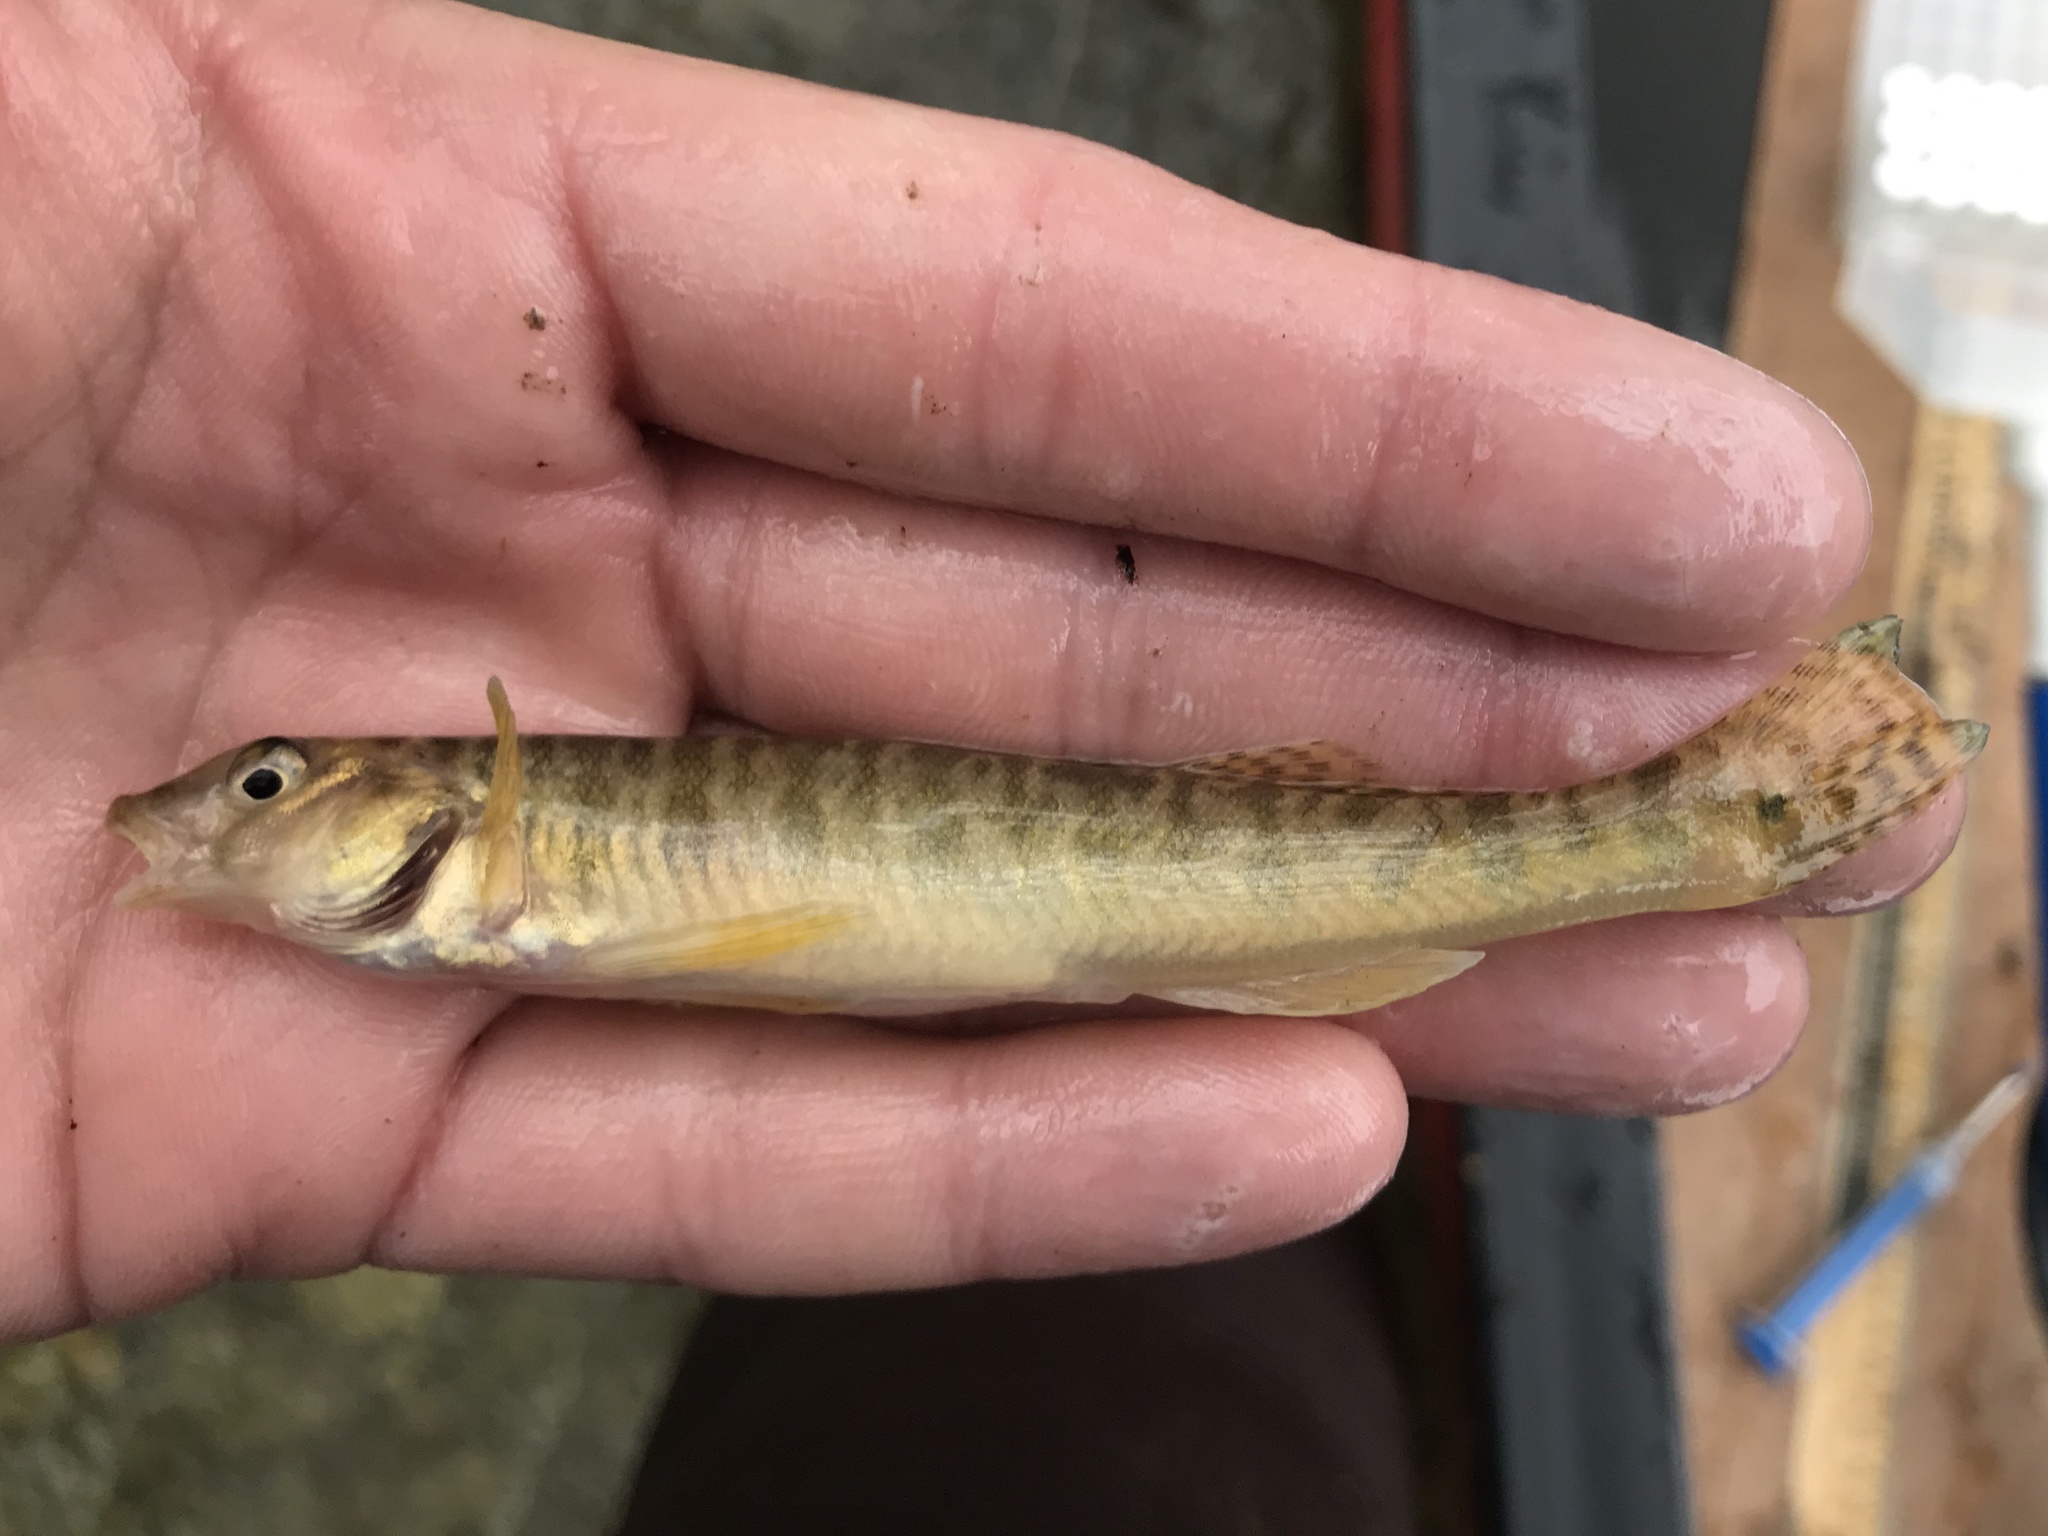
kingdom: Animalia
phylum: Chordata
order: Perciformes
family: Percidae
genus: Percina
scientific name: Percina carbonaria
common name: Texas logperch
